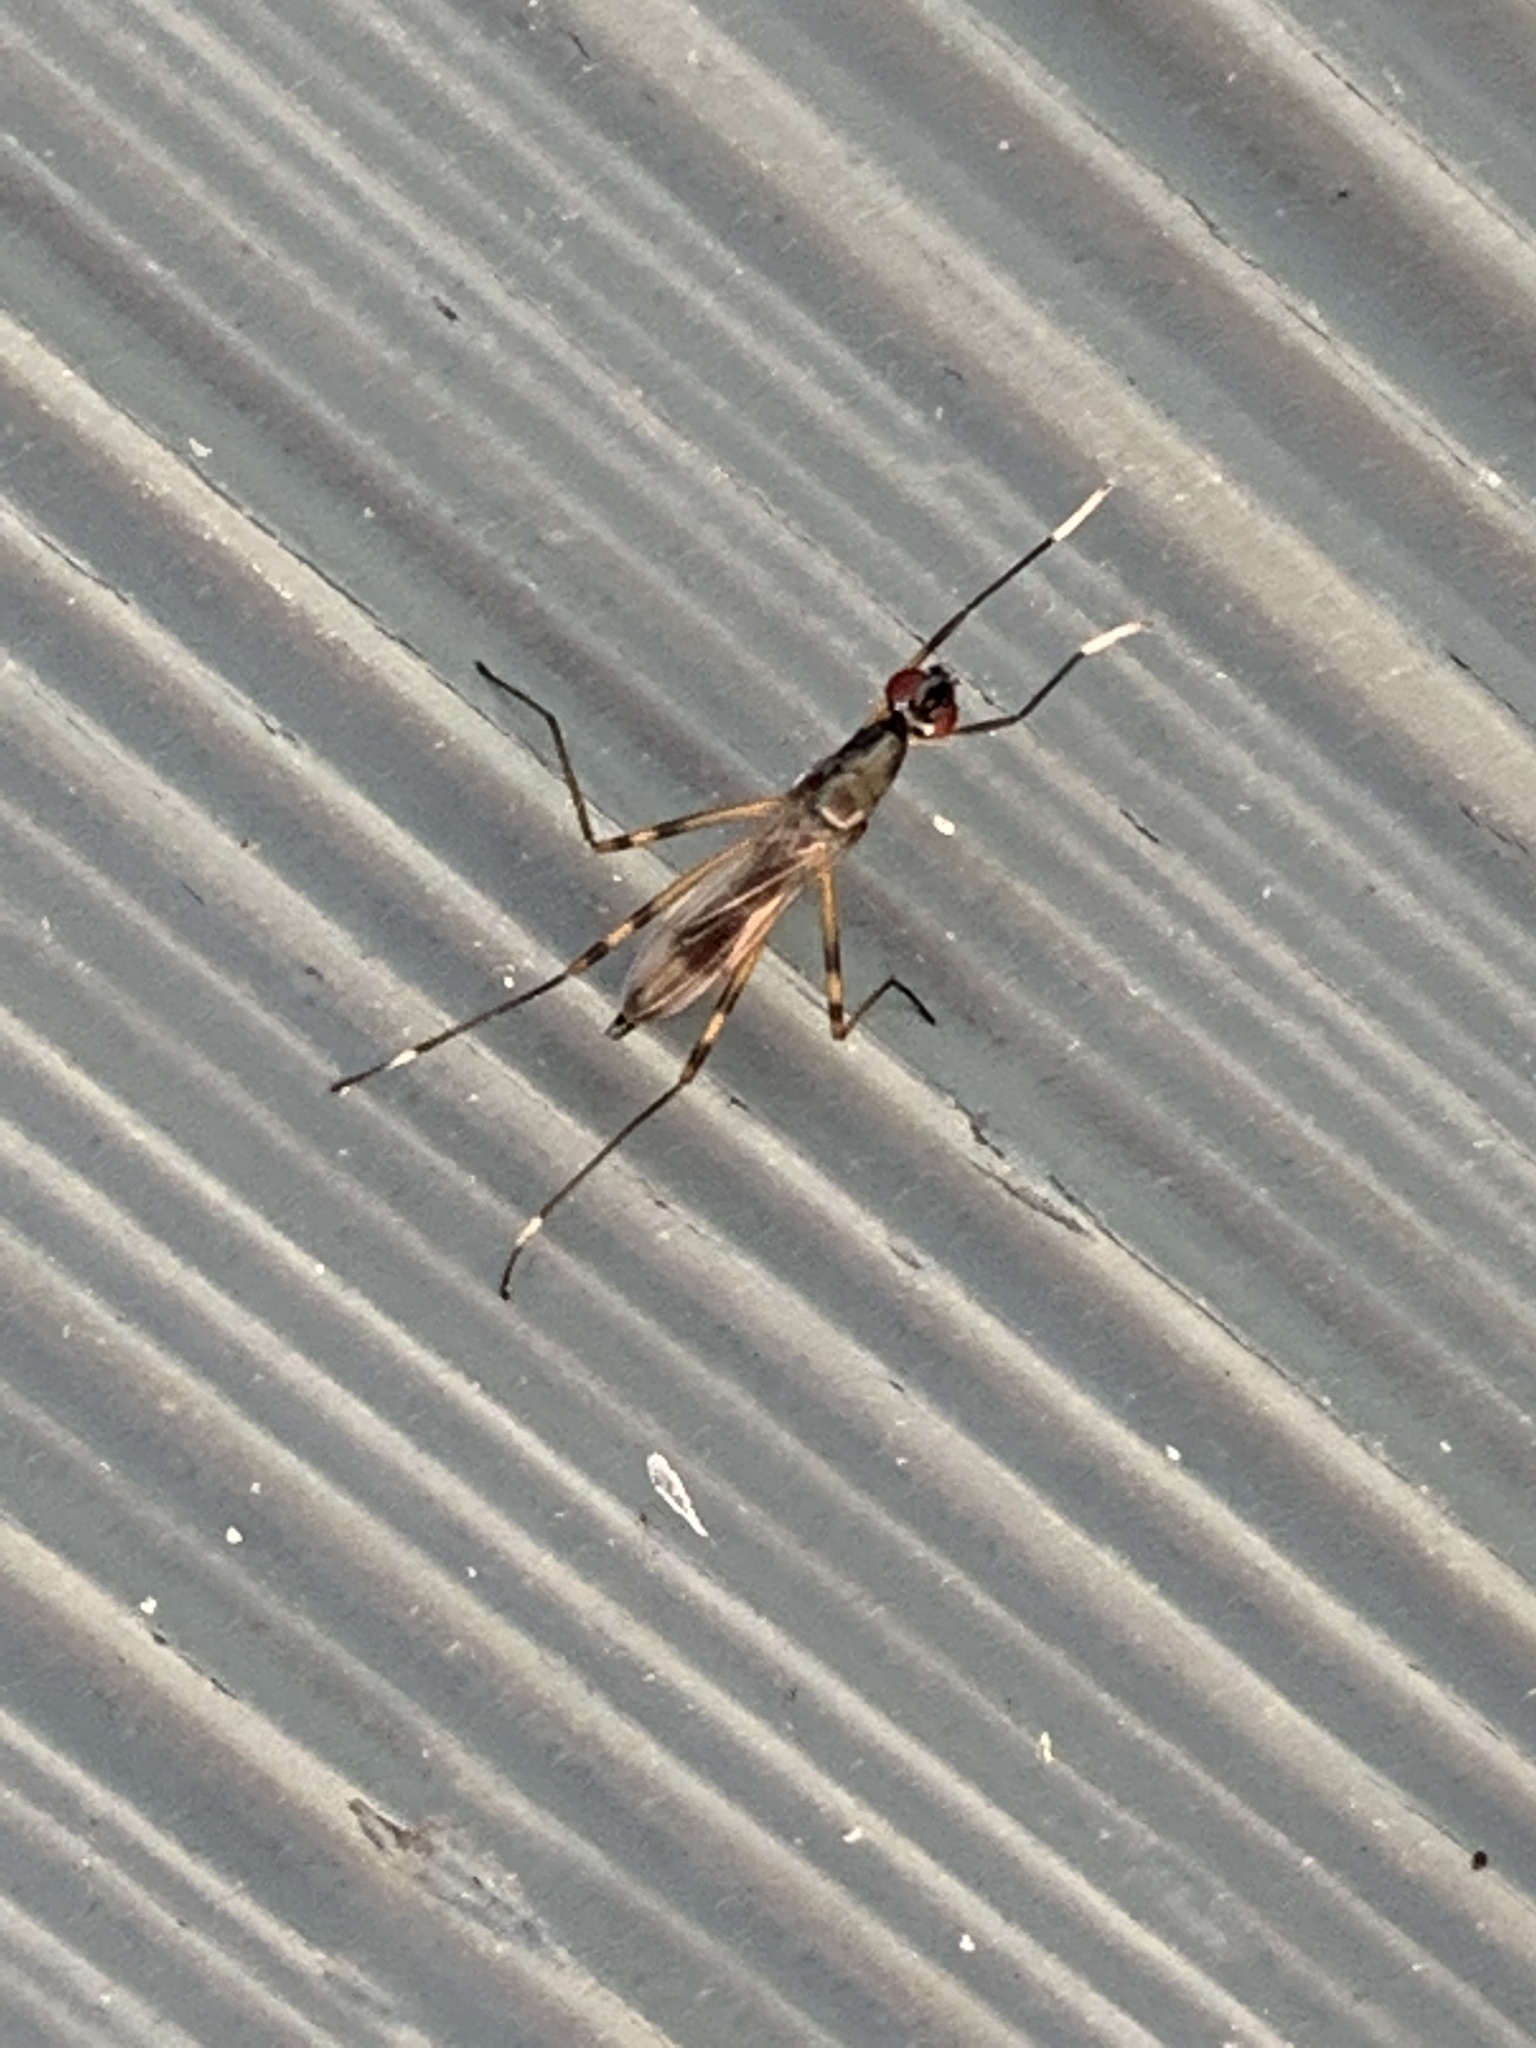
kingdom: Animalia
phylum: Arthropoda
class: Insecta
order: Diptera
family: Micropezidae
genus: Rainieria
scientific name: Rainieria antennaepes
